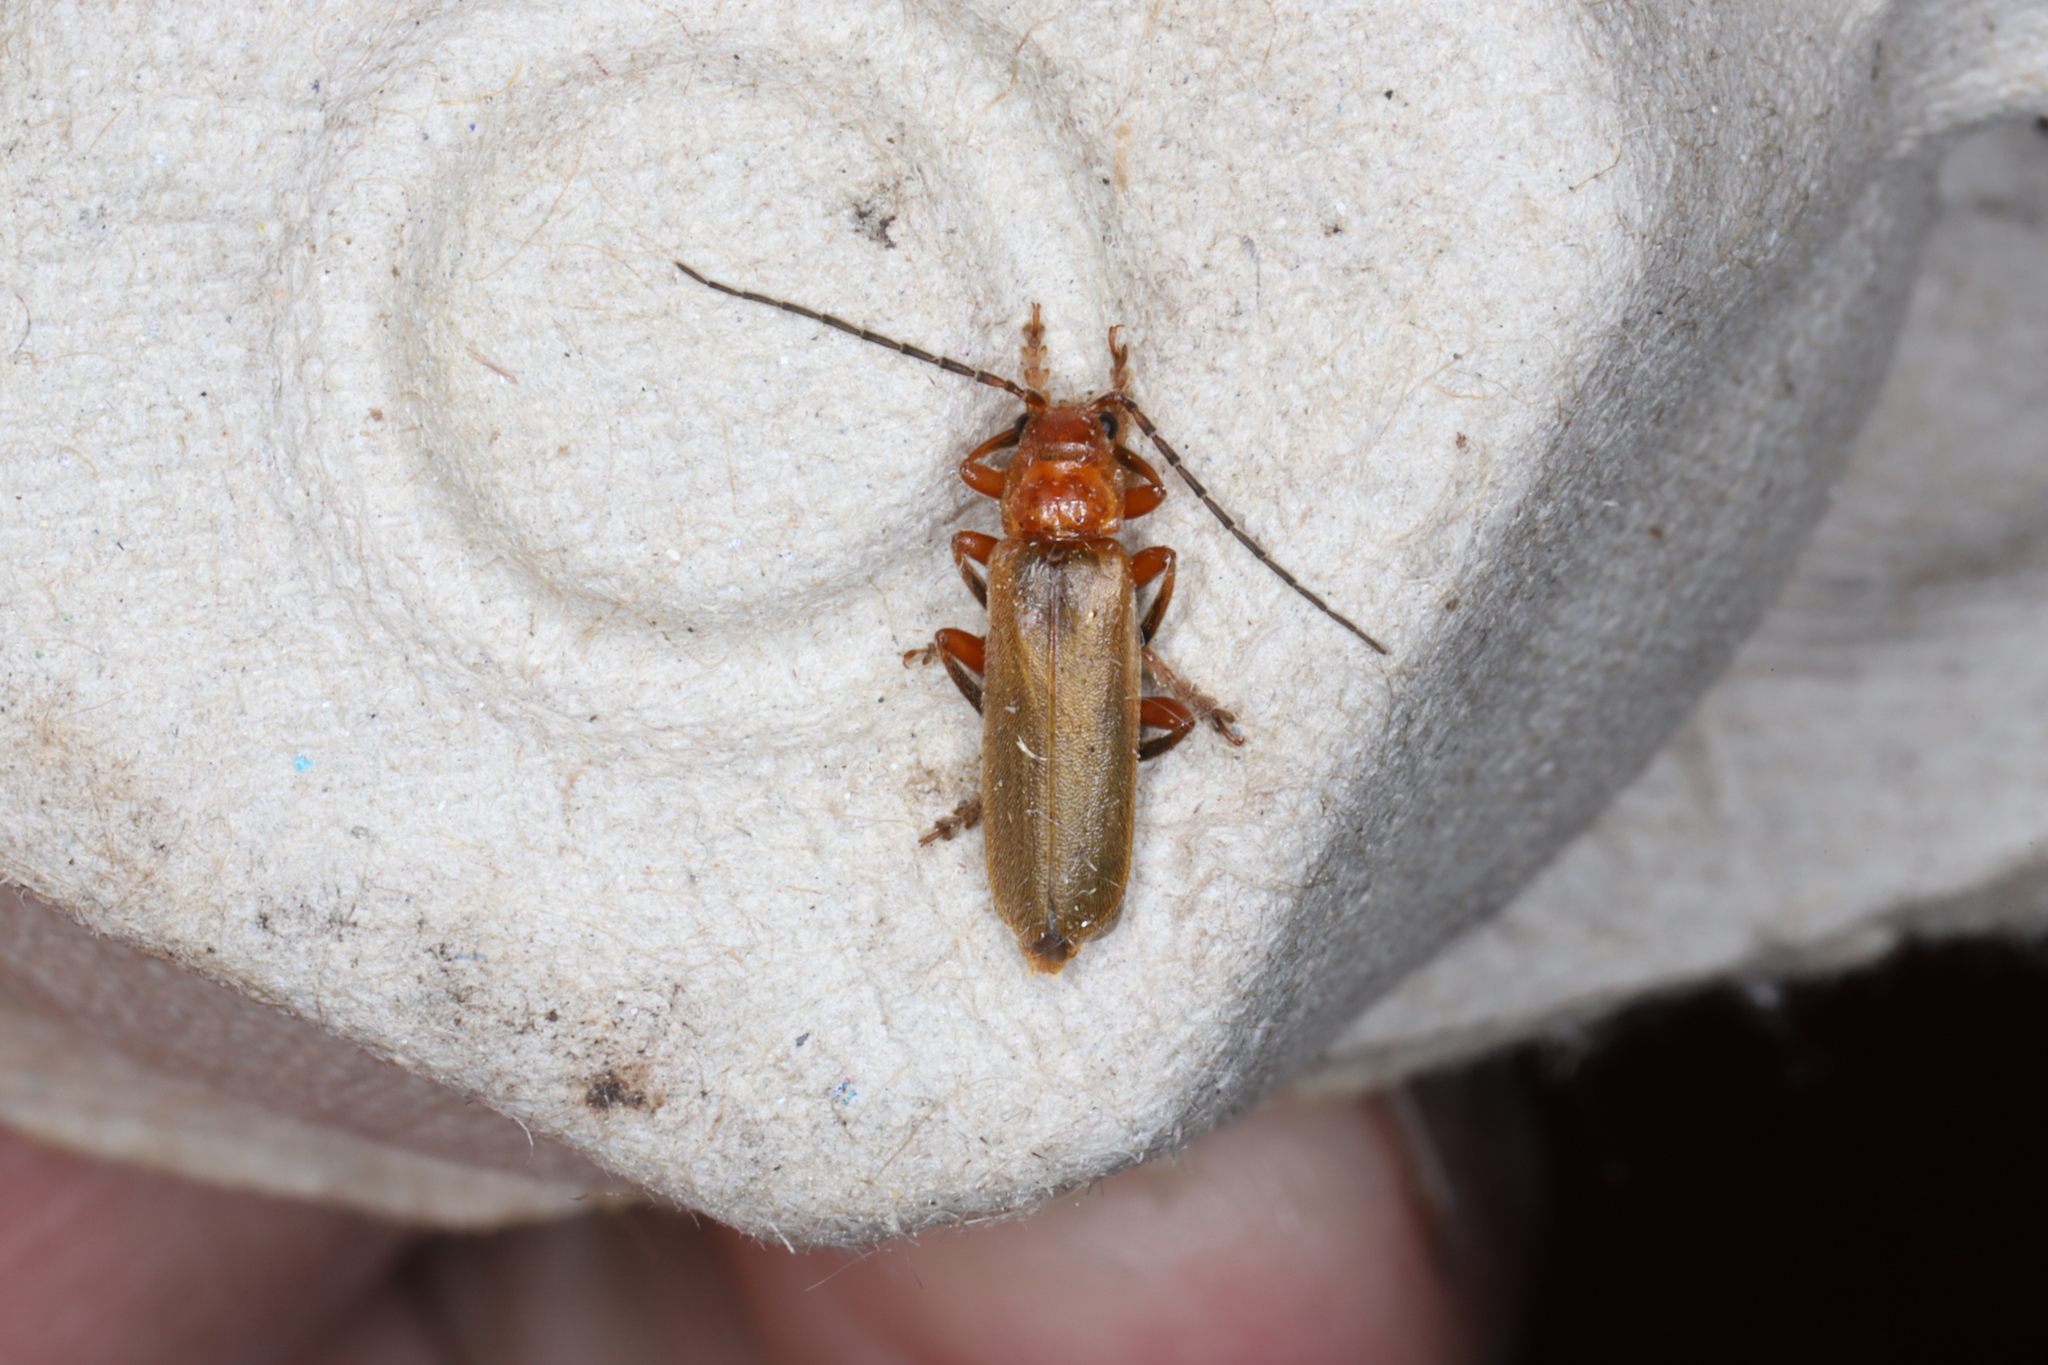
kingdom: Animalia
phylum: Arthropoda
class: Insecta
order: Coleoptera
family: Cantharidae
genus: Cantharis
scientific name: Cantharis rufa
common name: Red-spotted soldier beetle
